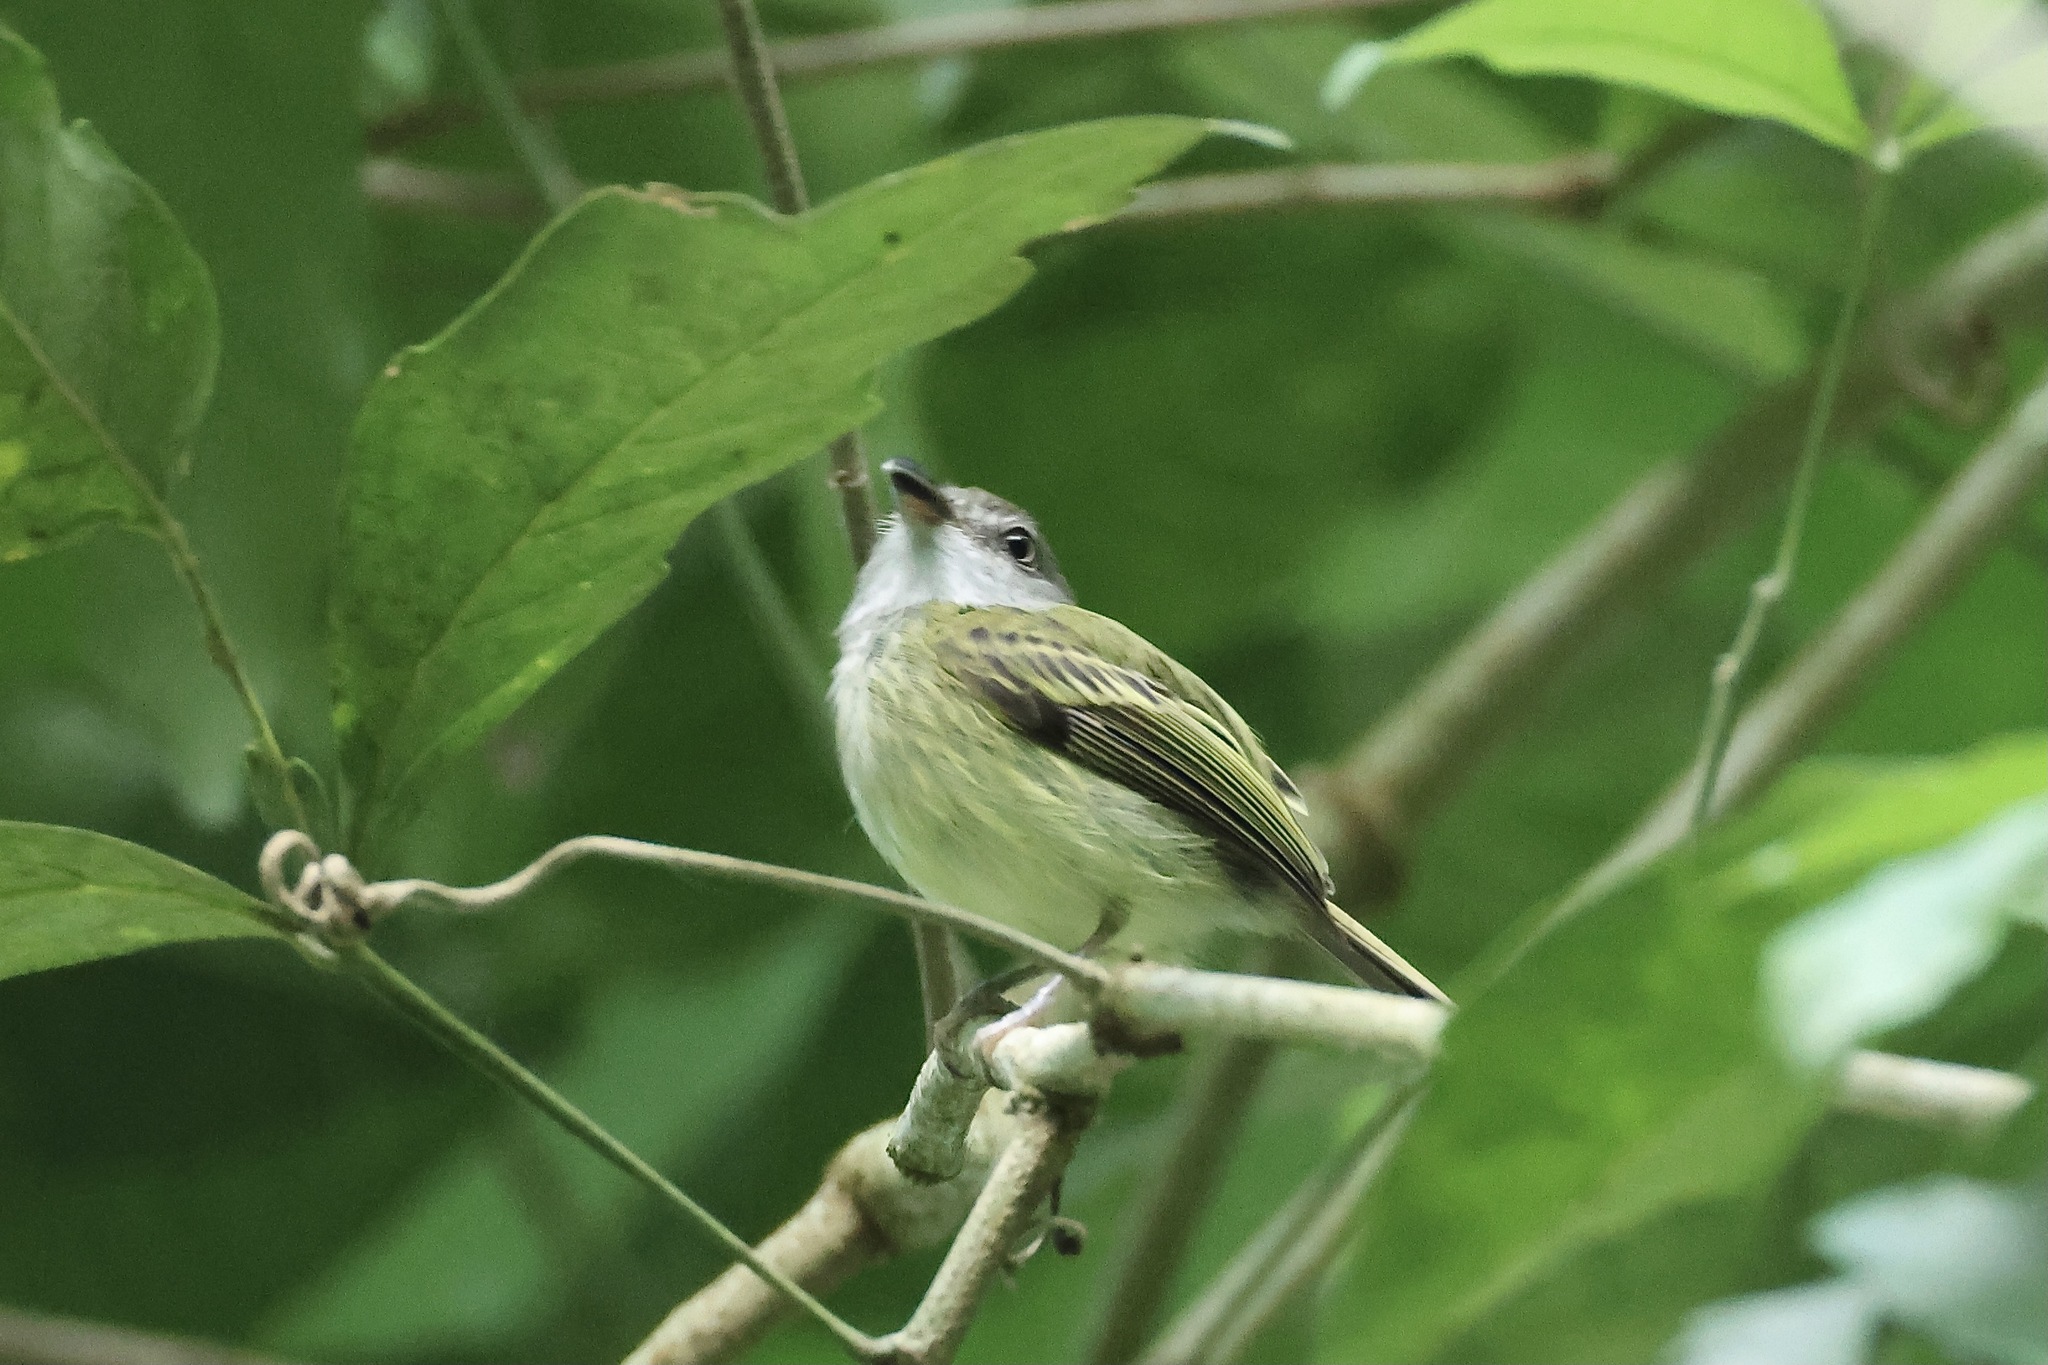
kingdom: Animalia
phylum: Chordata
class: Aves
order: Passeriformes
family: Tyrannidae
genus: Oncostoma
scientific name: Oncostoma cinereigulare
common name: Northern bentbill
